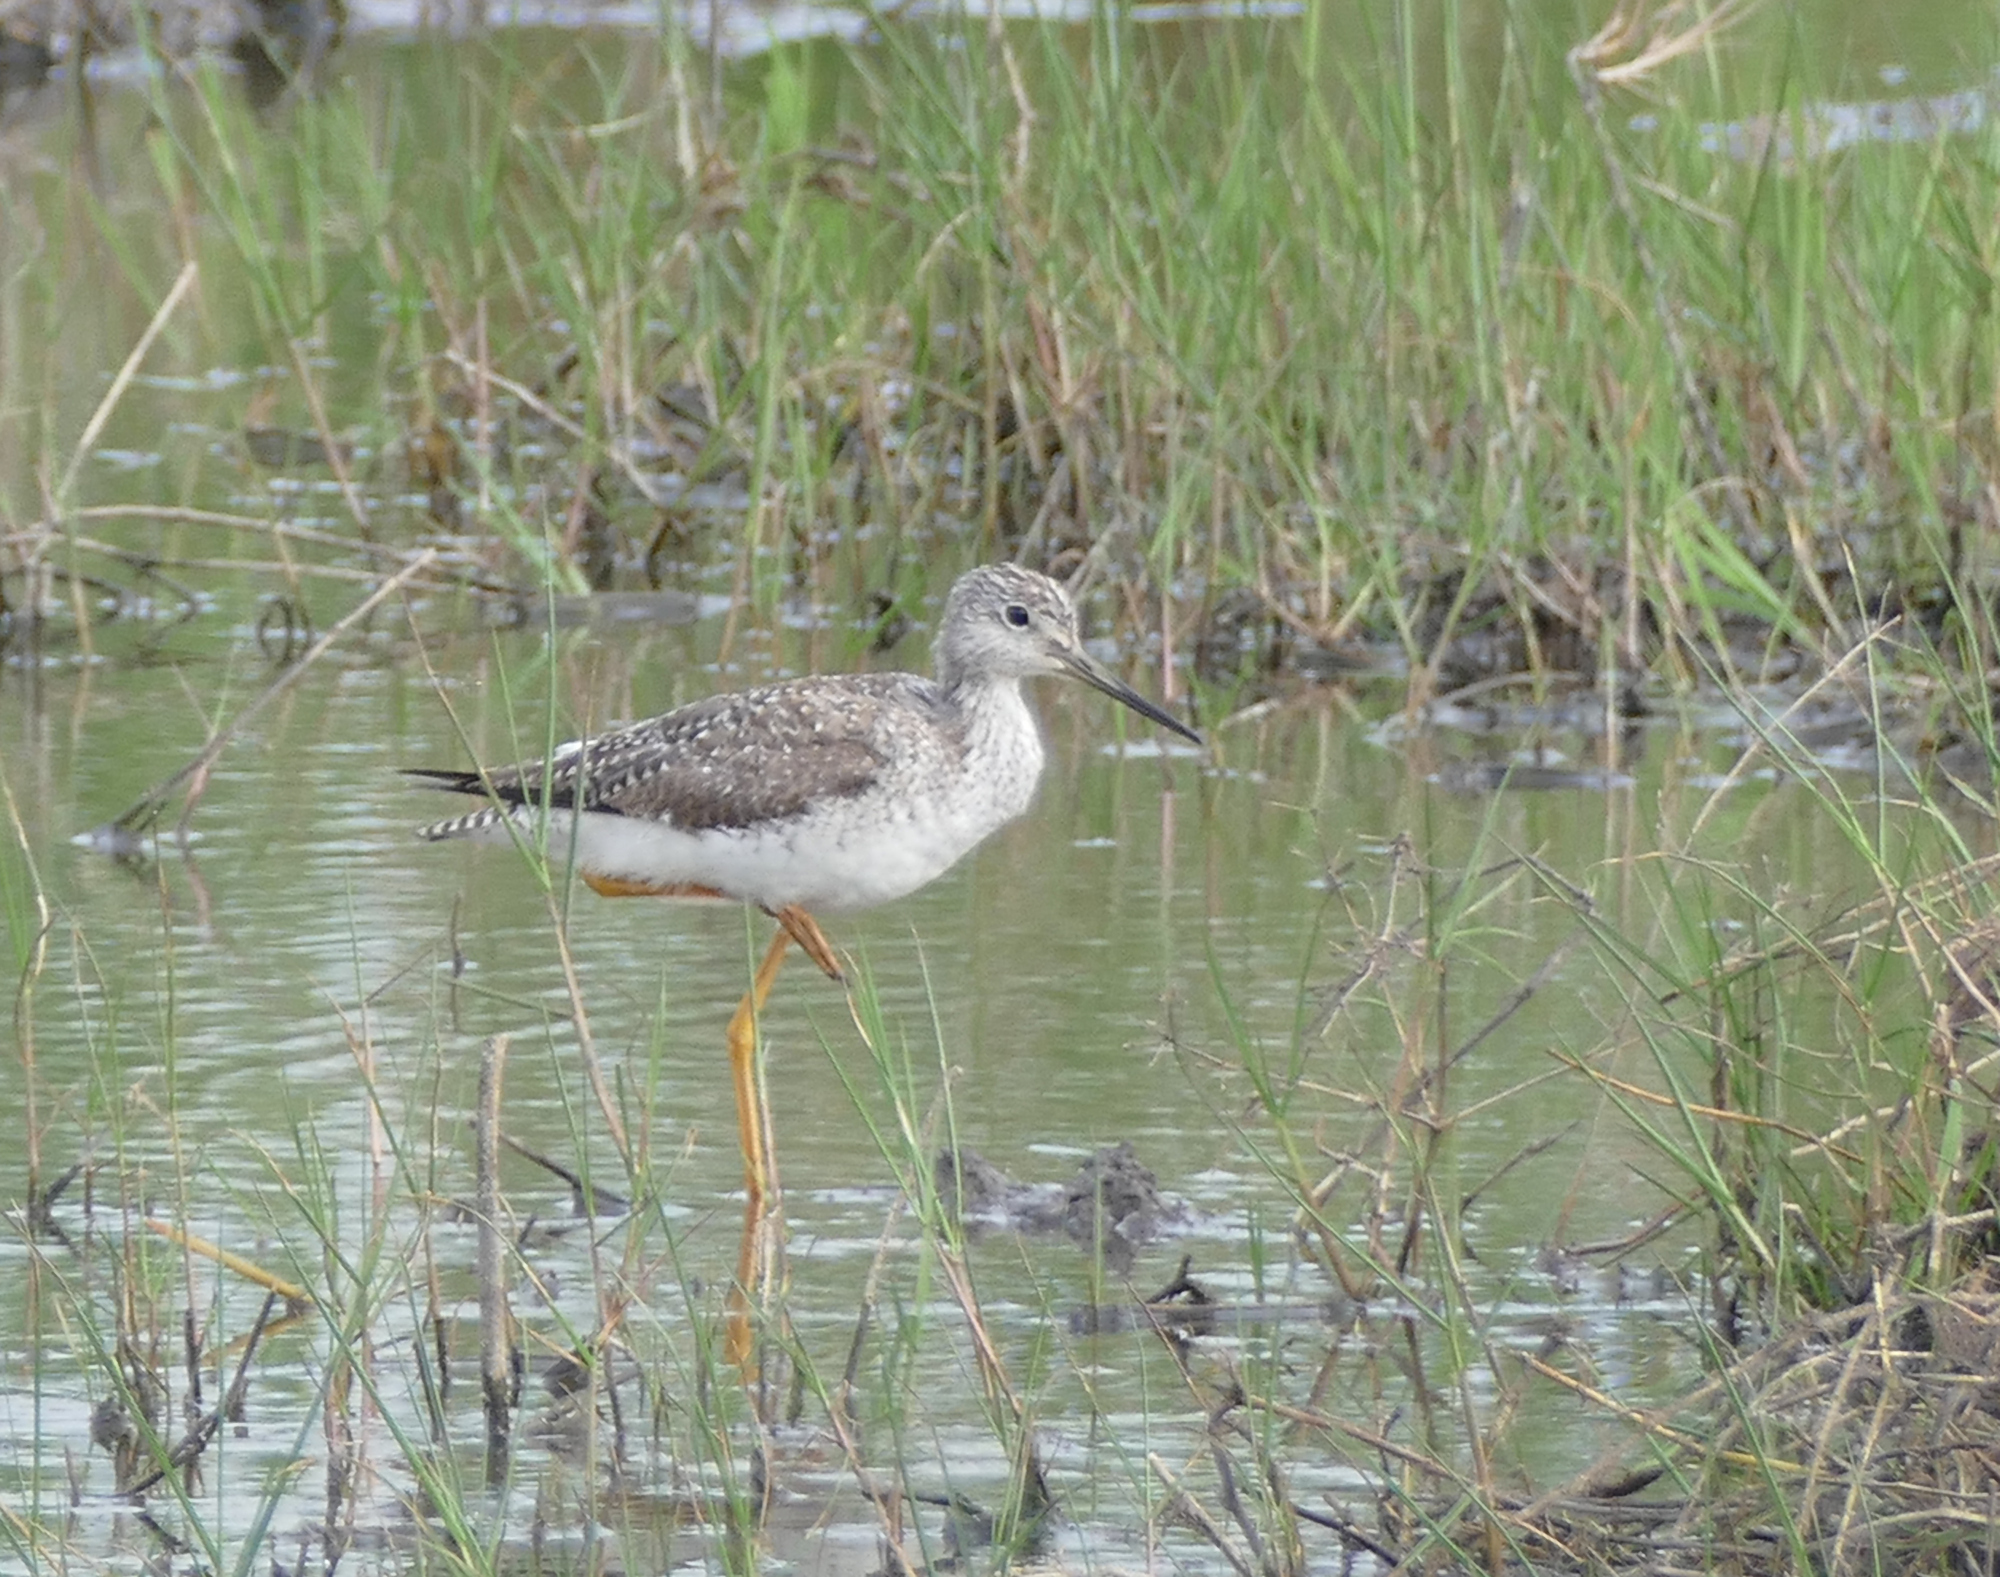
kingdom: Animalia
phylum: Chordata
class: Aves
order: Charadriiformes
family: Scolopacidae
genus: Tringa
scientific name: Tringa melanoleuca
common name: Greater yellowlegs
